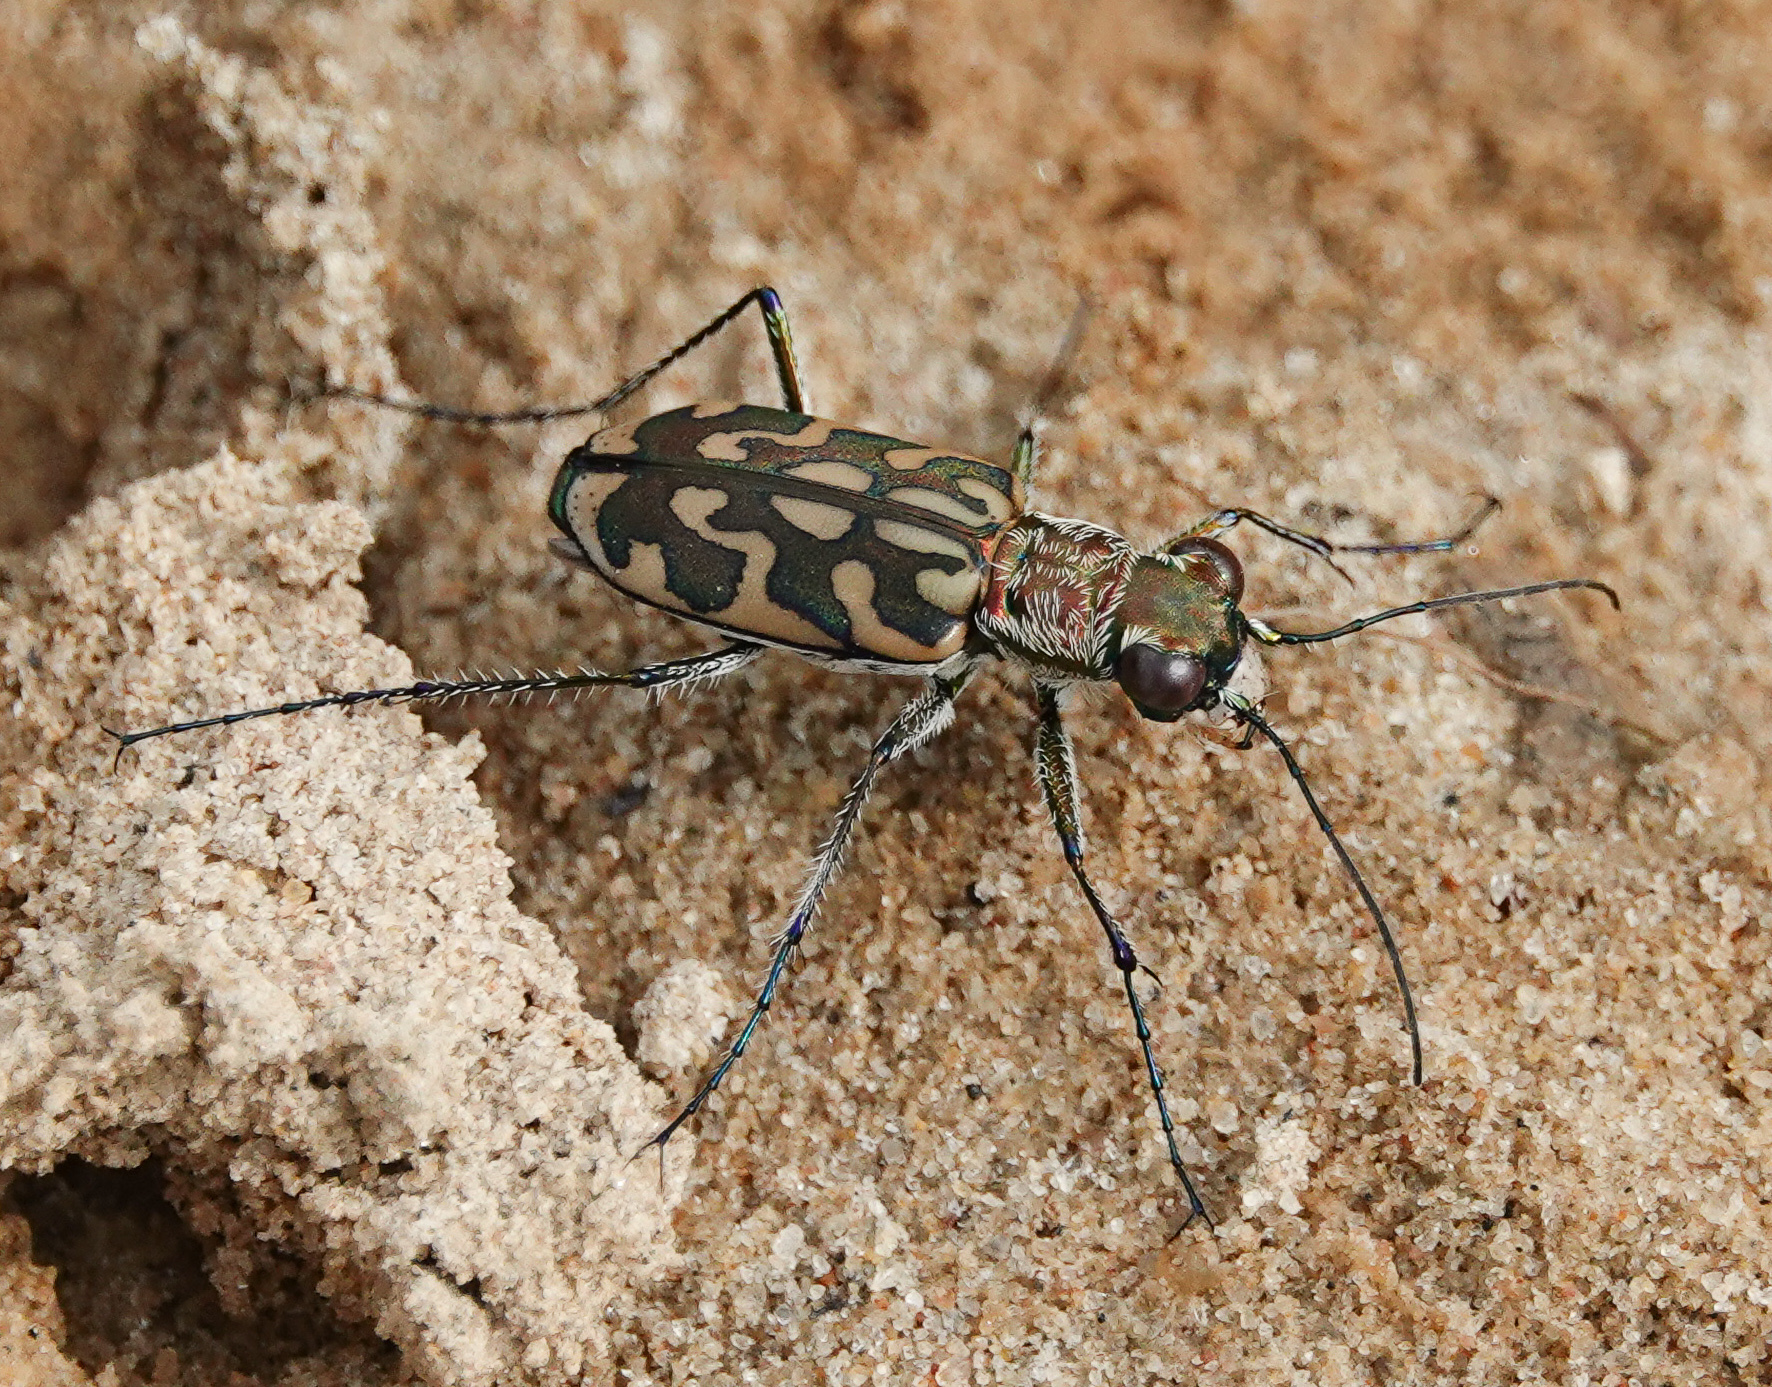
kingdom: Animalia
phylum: Arthropoda
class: Insecta
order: Coleoptera
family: Carabidae
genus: Lophyra
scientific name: Lophyra cancellata
